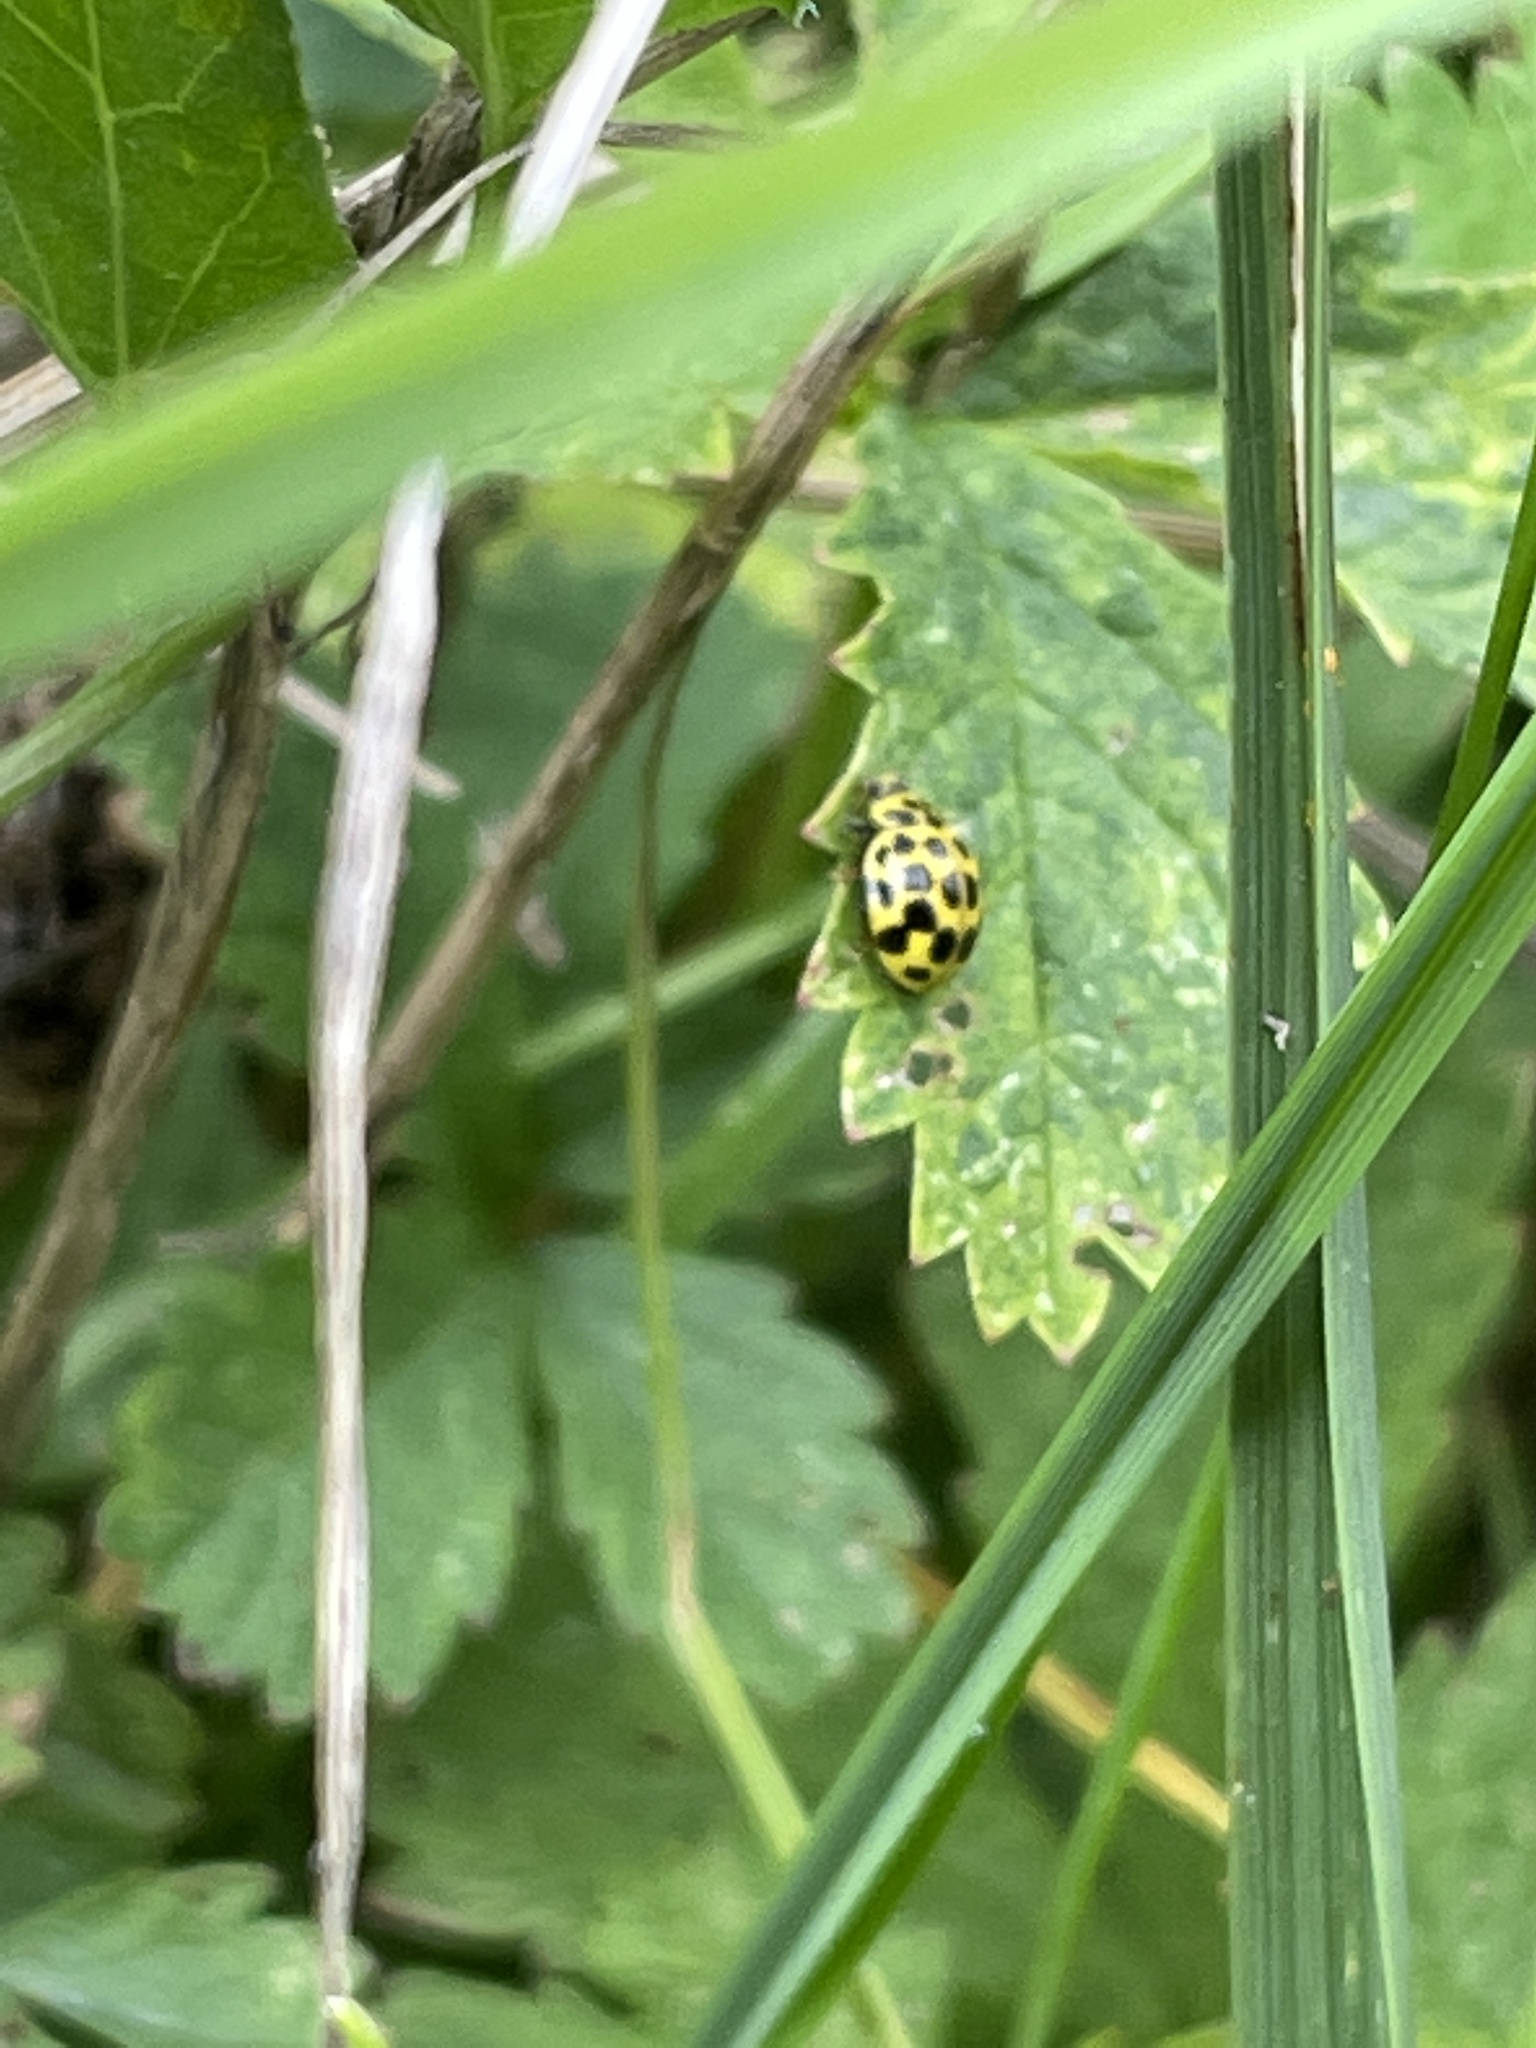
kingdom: Animalia
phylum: Arthropoda
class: Insecta
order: Coleoptera
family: Coccinellidae
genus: Psyllobora
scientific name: Psyllobora vigintiduopunctata
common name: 22-spot ladybird
